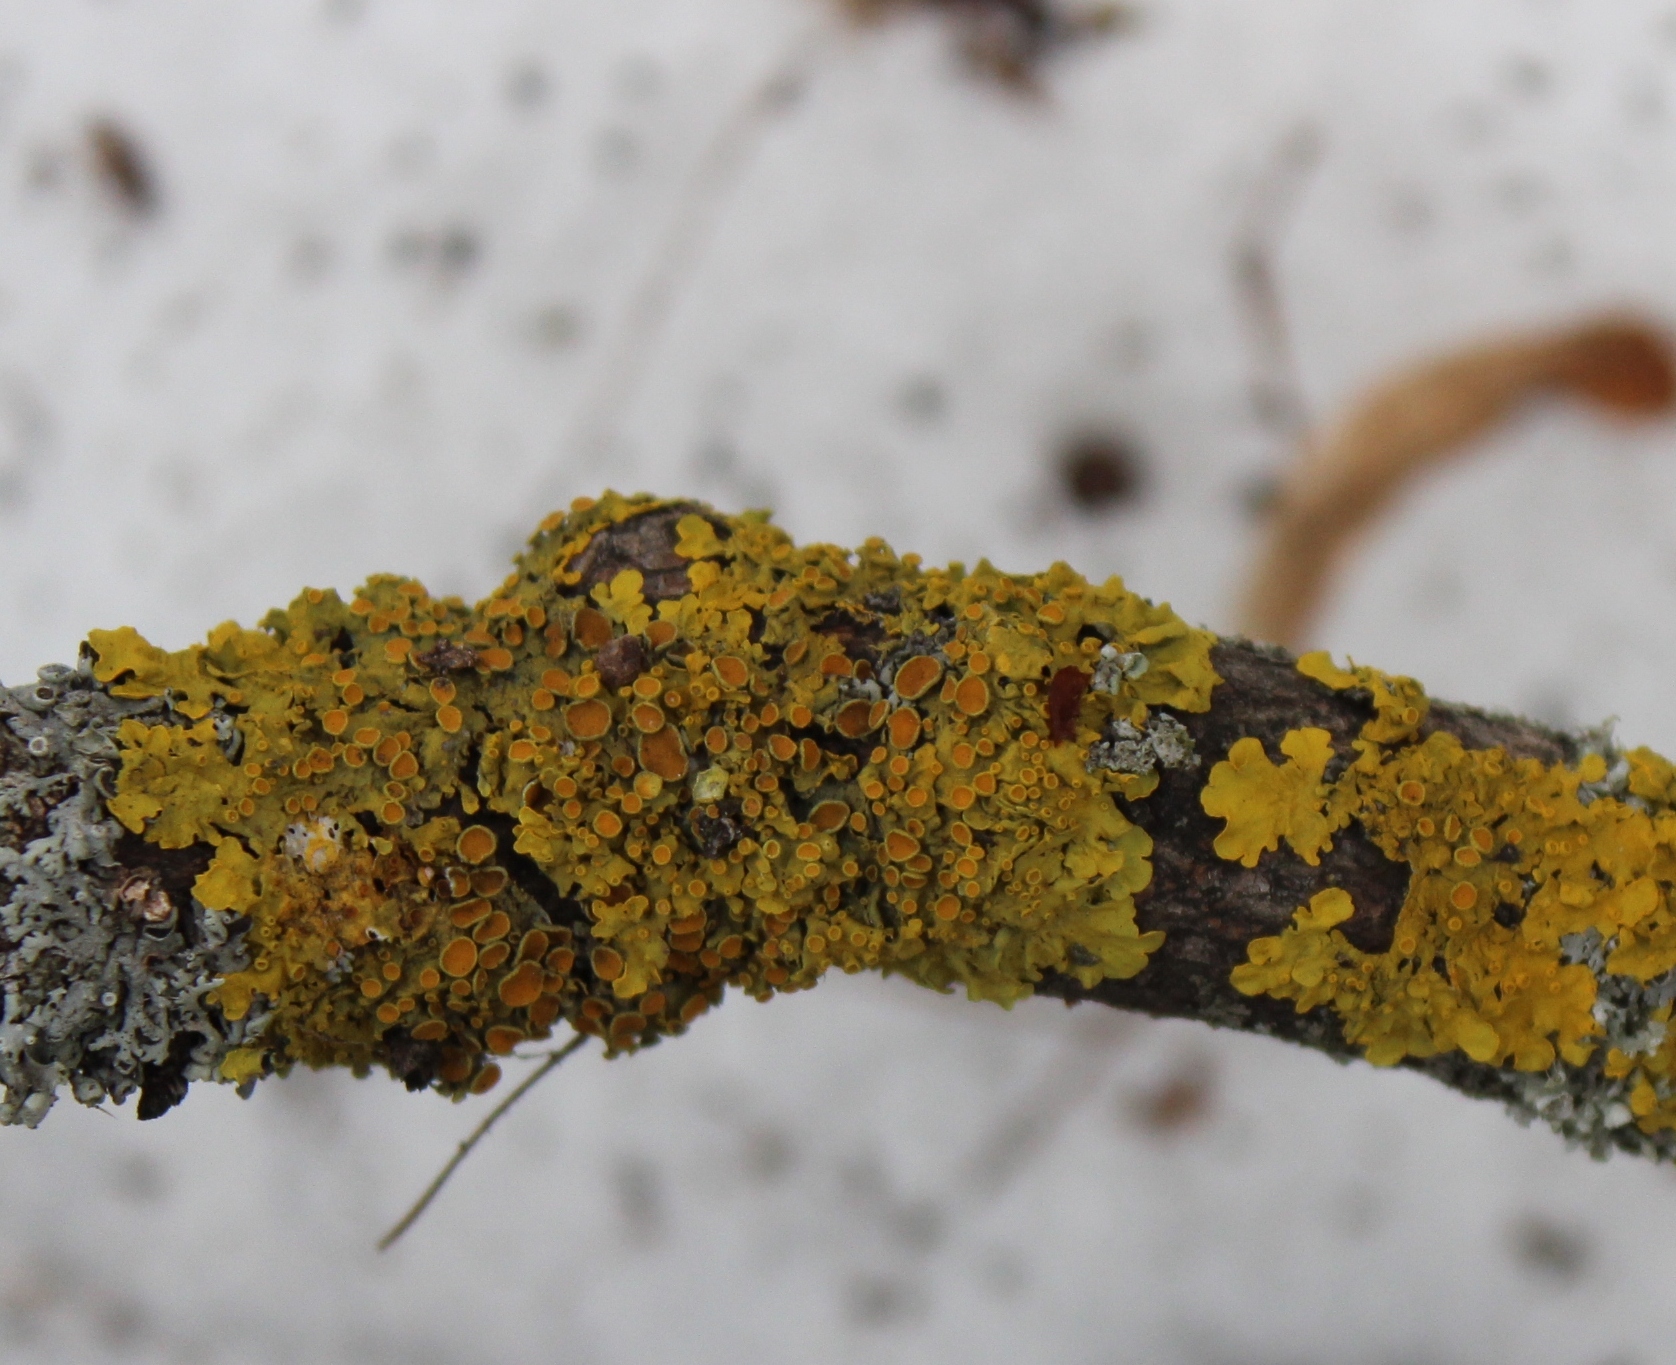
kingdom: Fungi
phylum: Ascomycota
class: Lecanoromycetes
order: Teloschistales
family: Teloschistaceae
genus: Xanthoria
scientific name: Xanthoria parietina
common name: Common orange lichen
